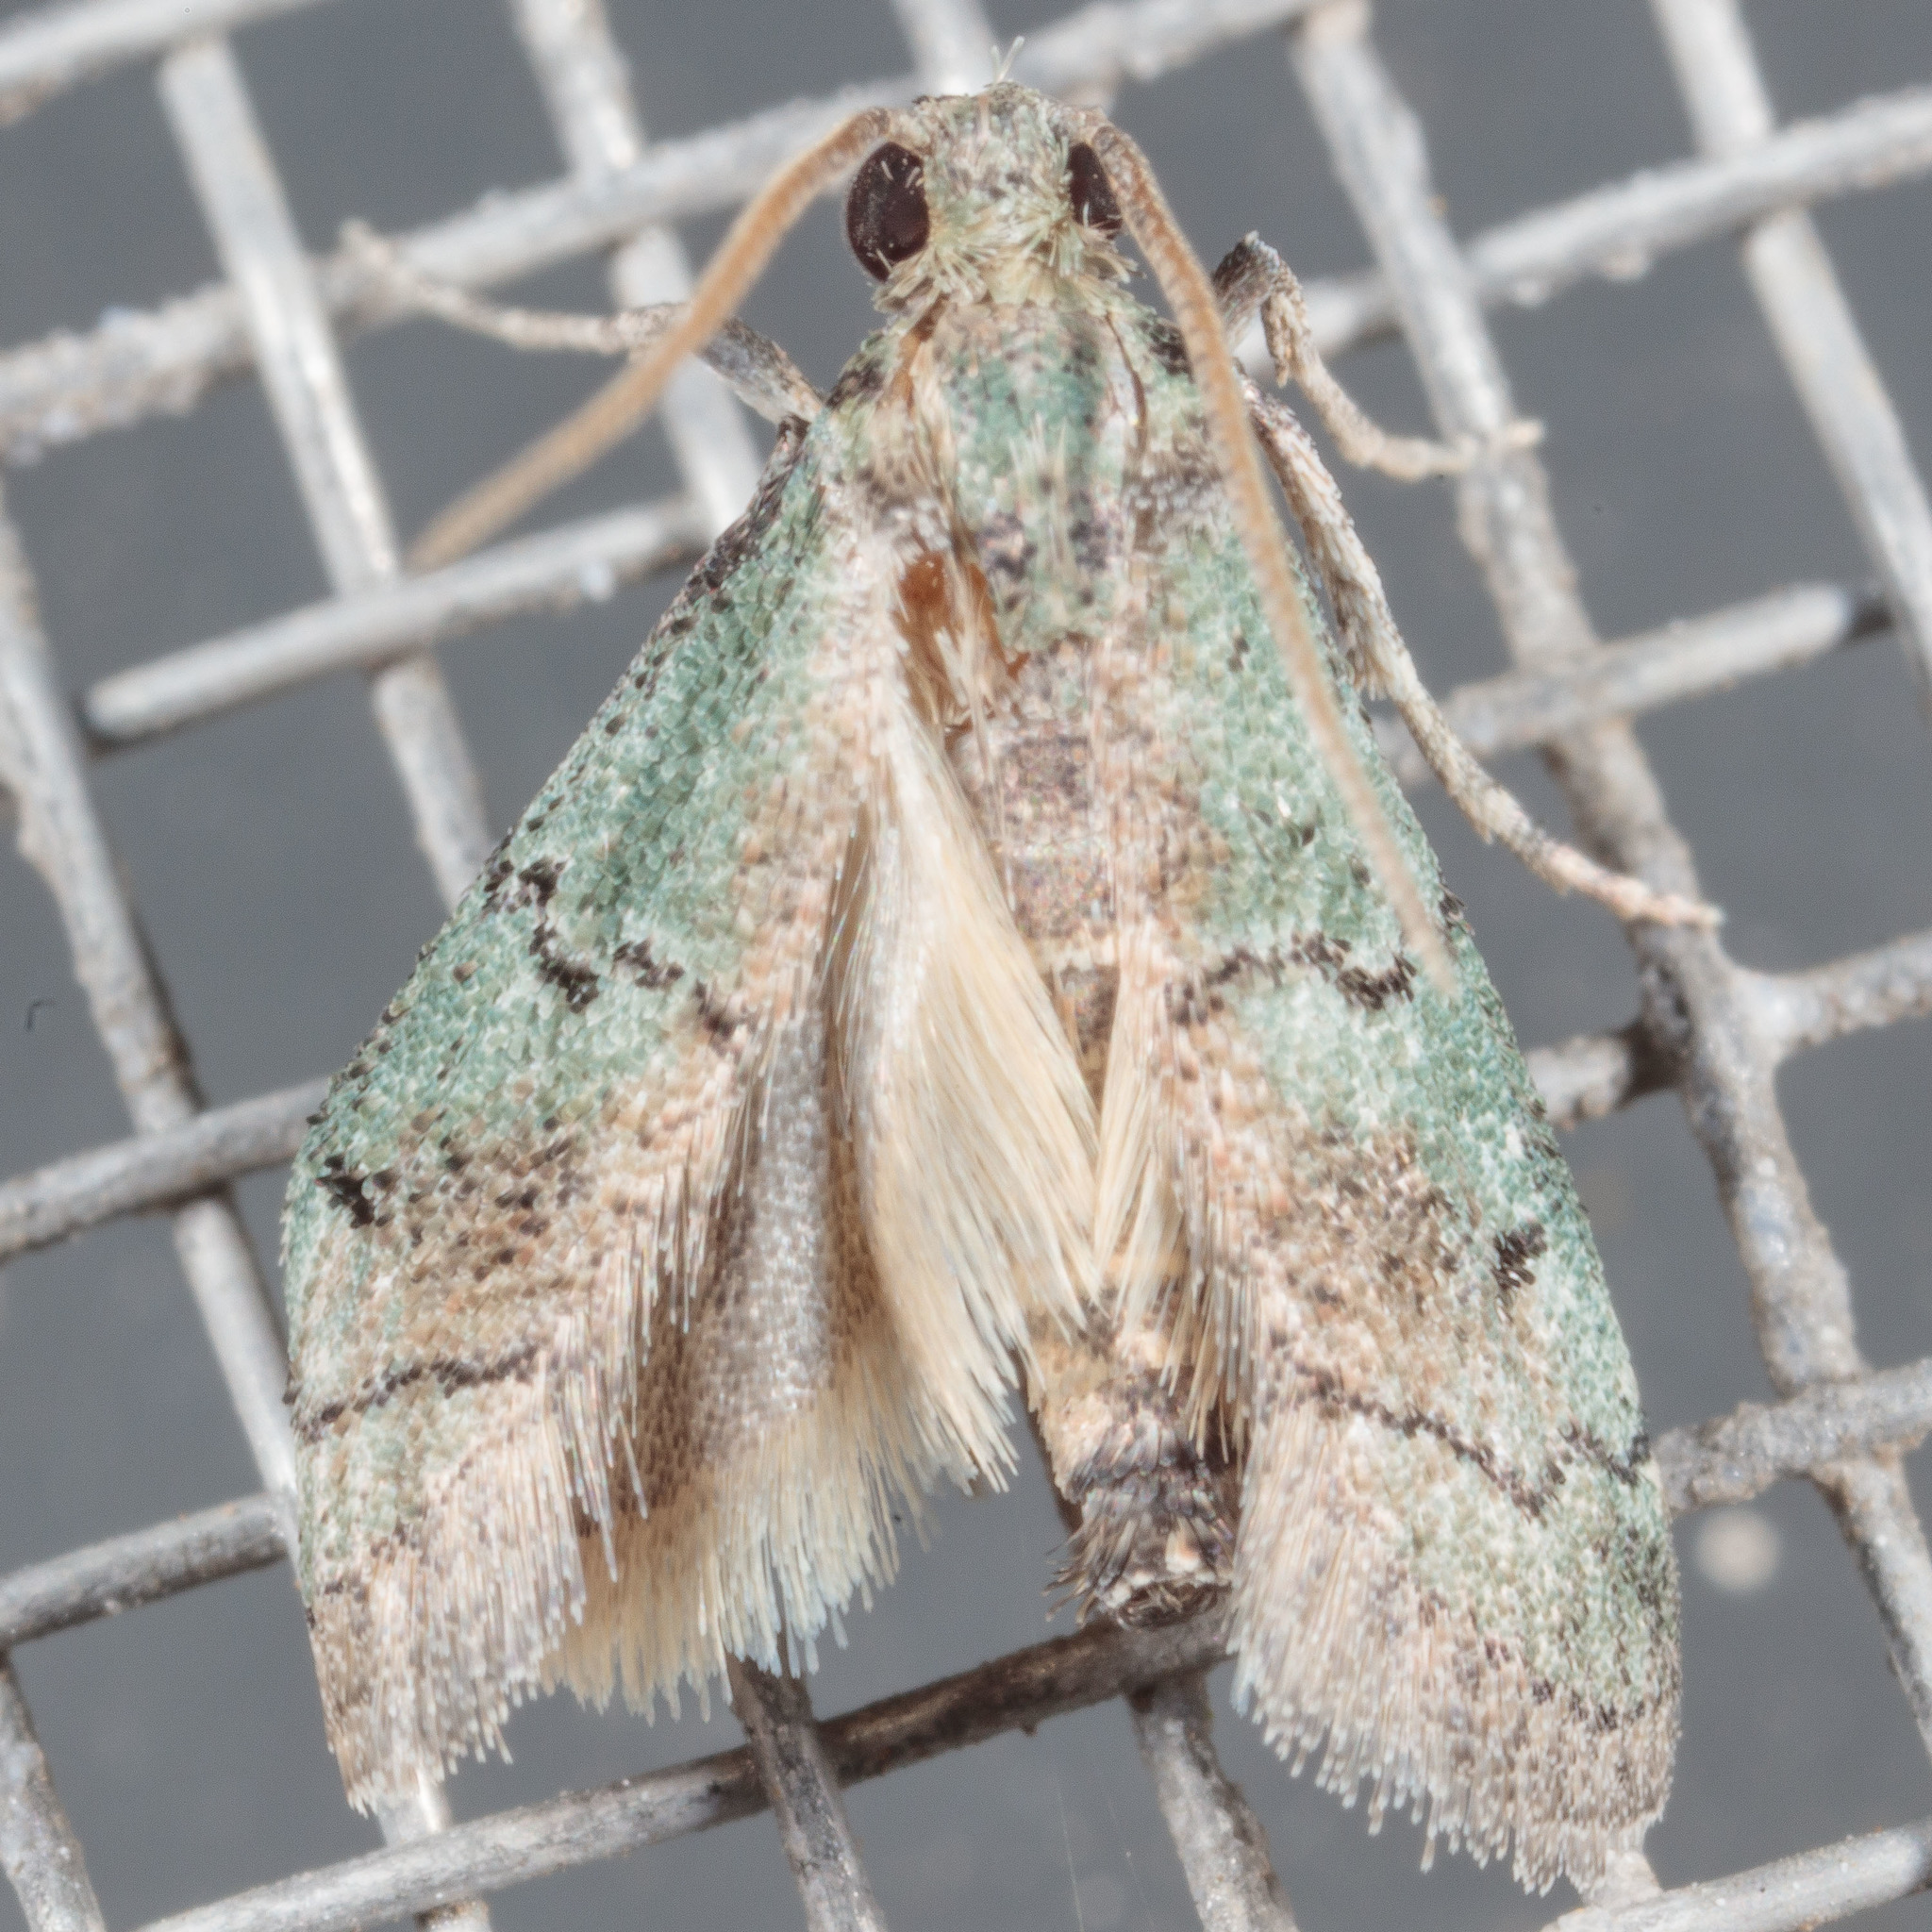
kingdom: Animalia
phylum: Arthropoda
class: Insecta
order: Lepidoptera
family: Pyralidae
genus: Cacotherapia
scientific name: Cacotherapia flexilinealis
